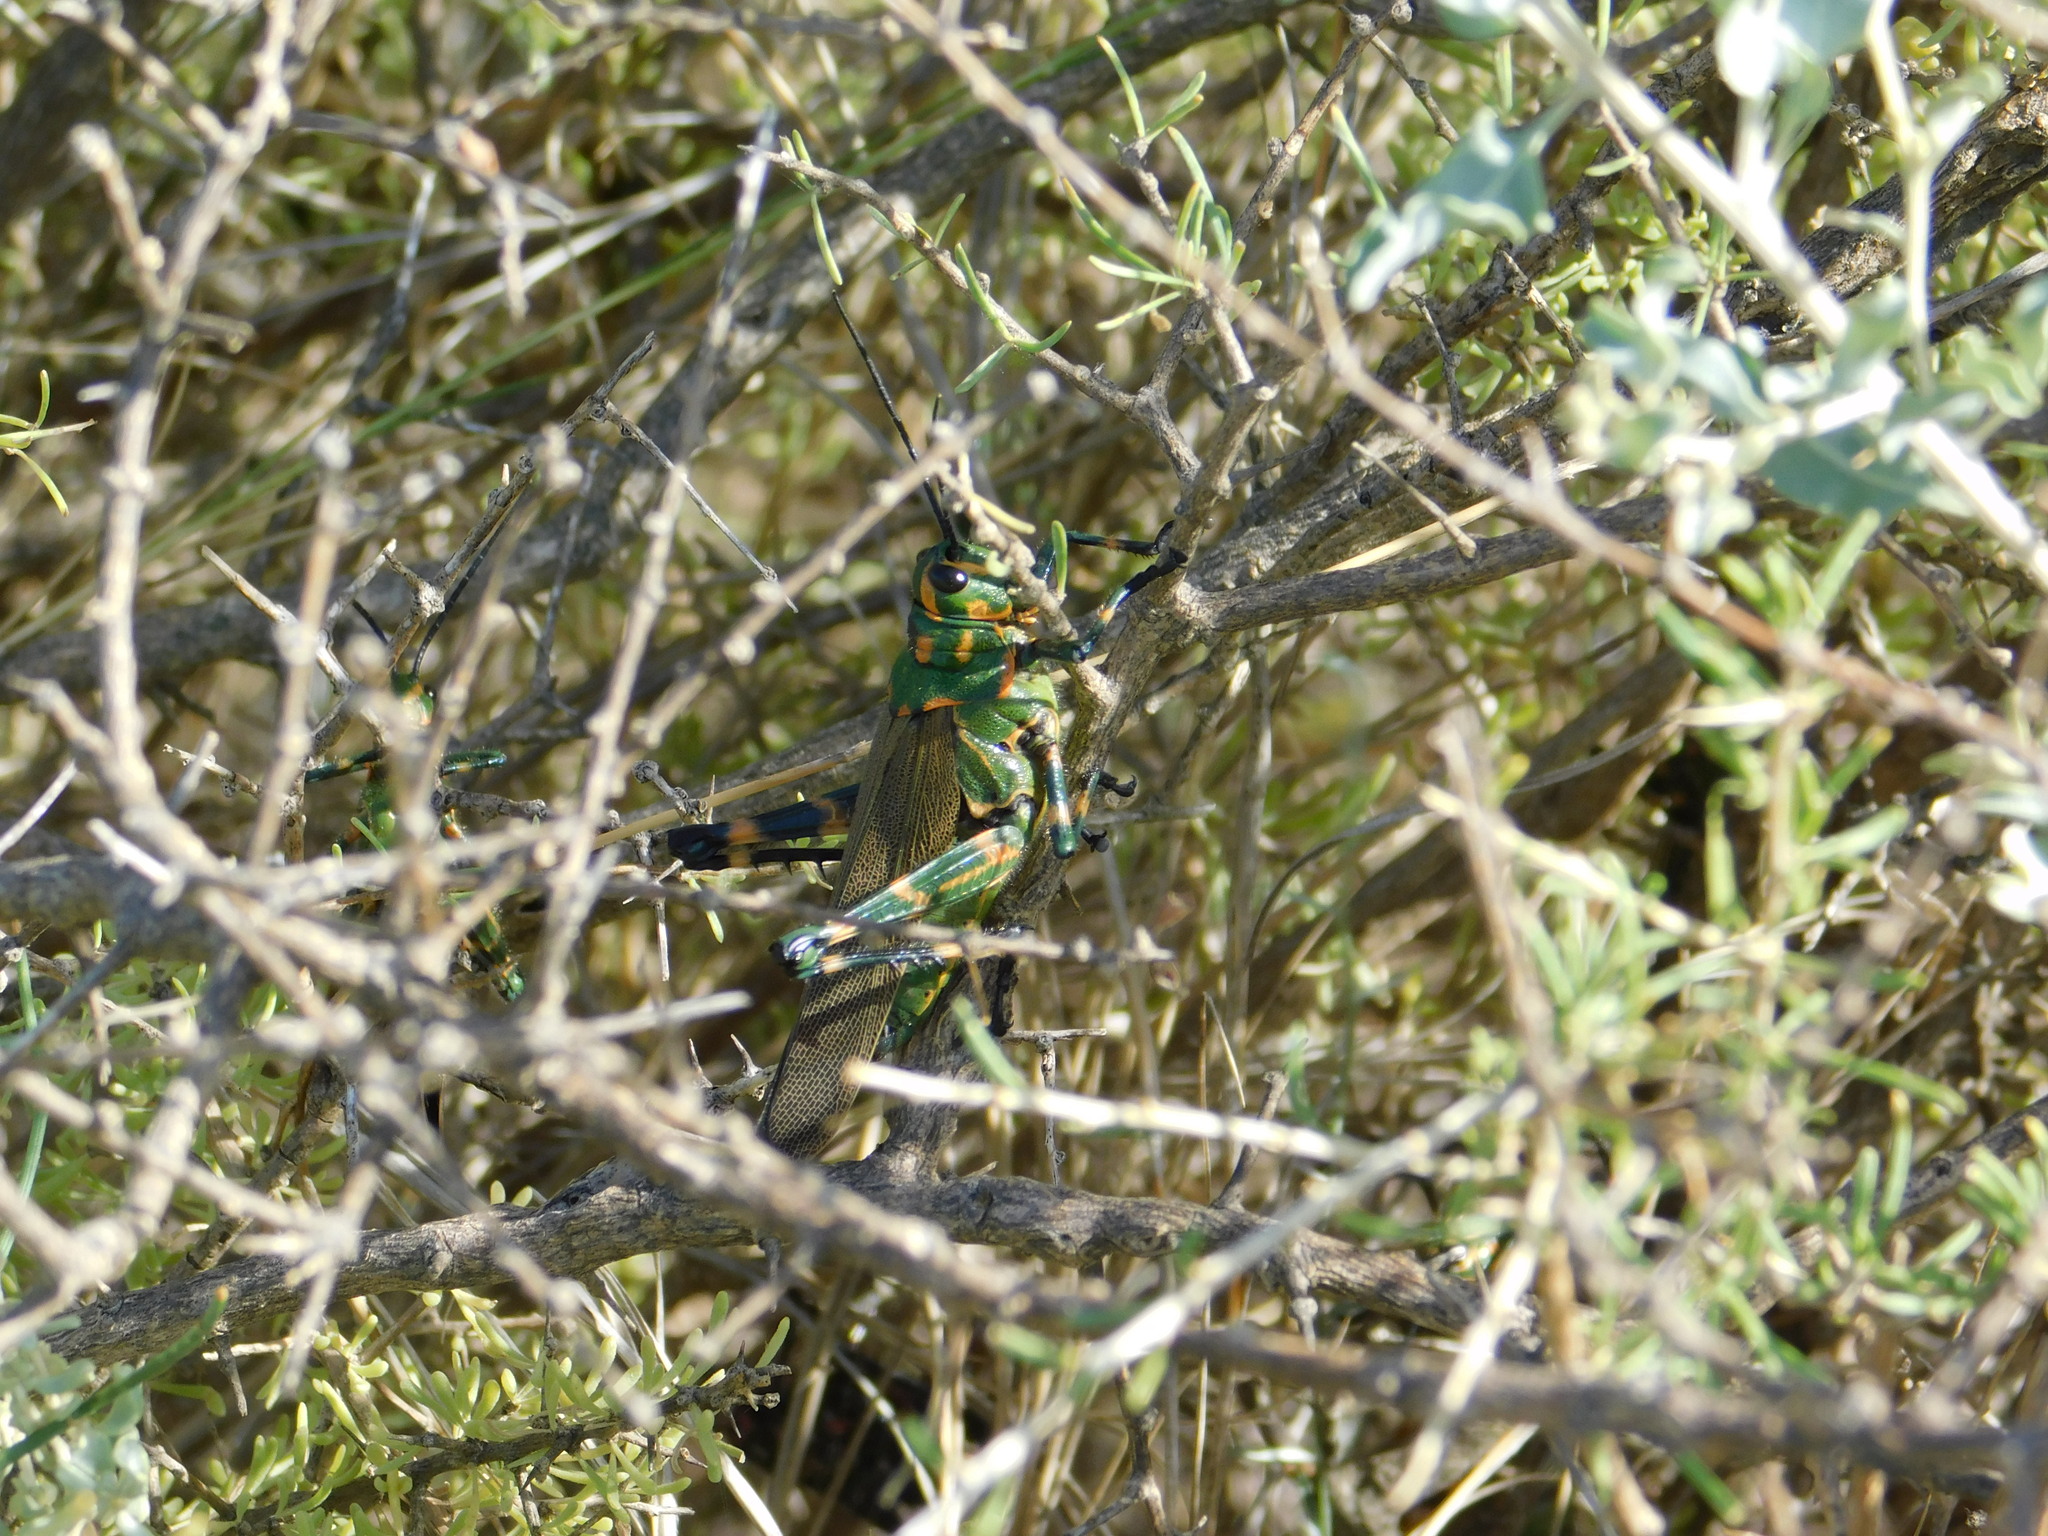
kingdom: Animalia
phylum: Arthropoda
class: Insecta
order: Orthoptera
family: Romaleidae
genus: Chromacris
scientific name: Chromacris speciosa
